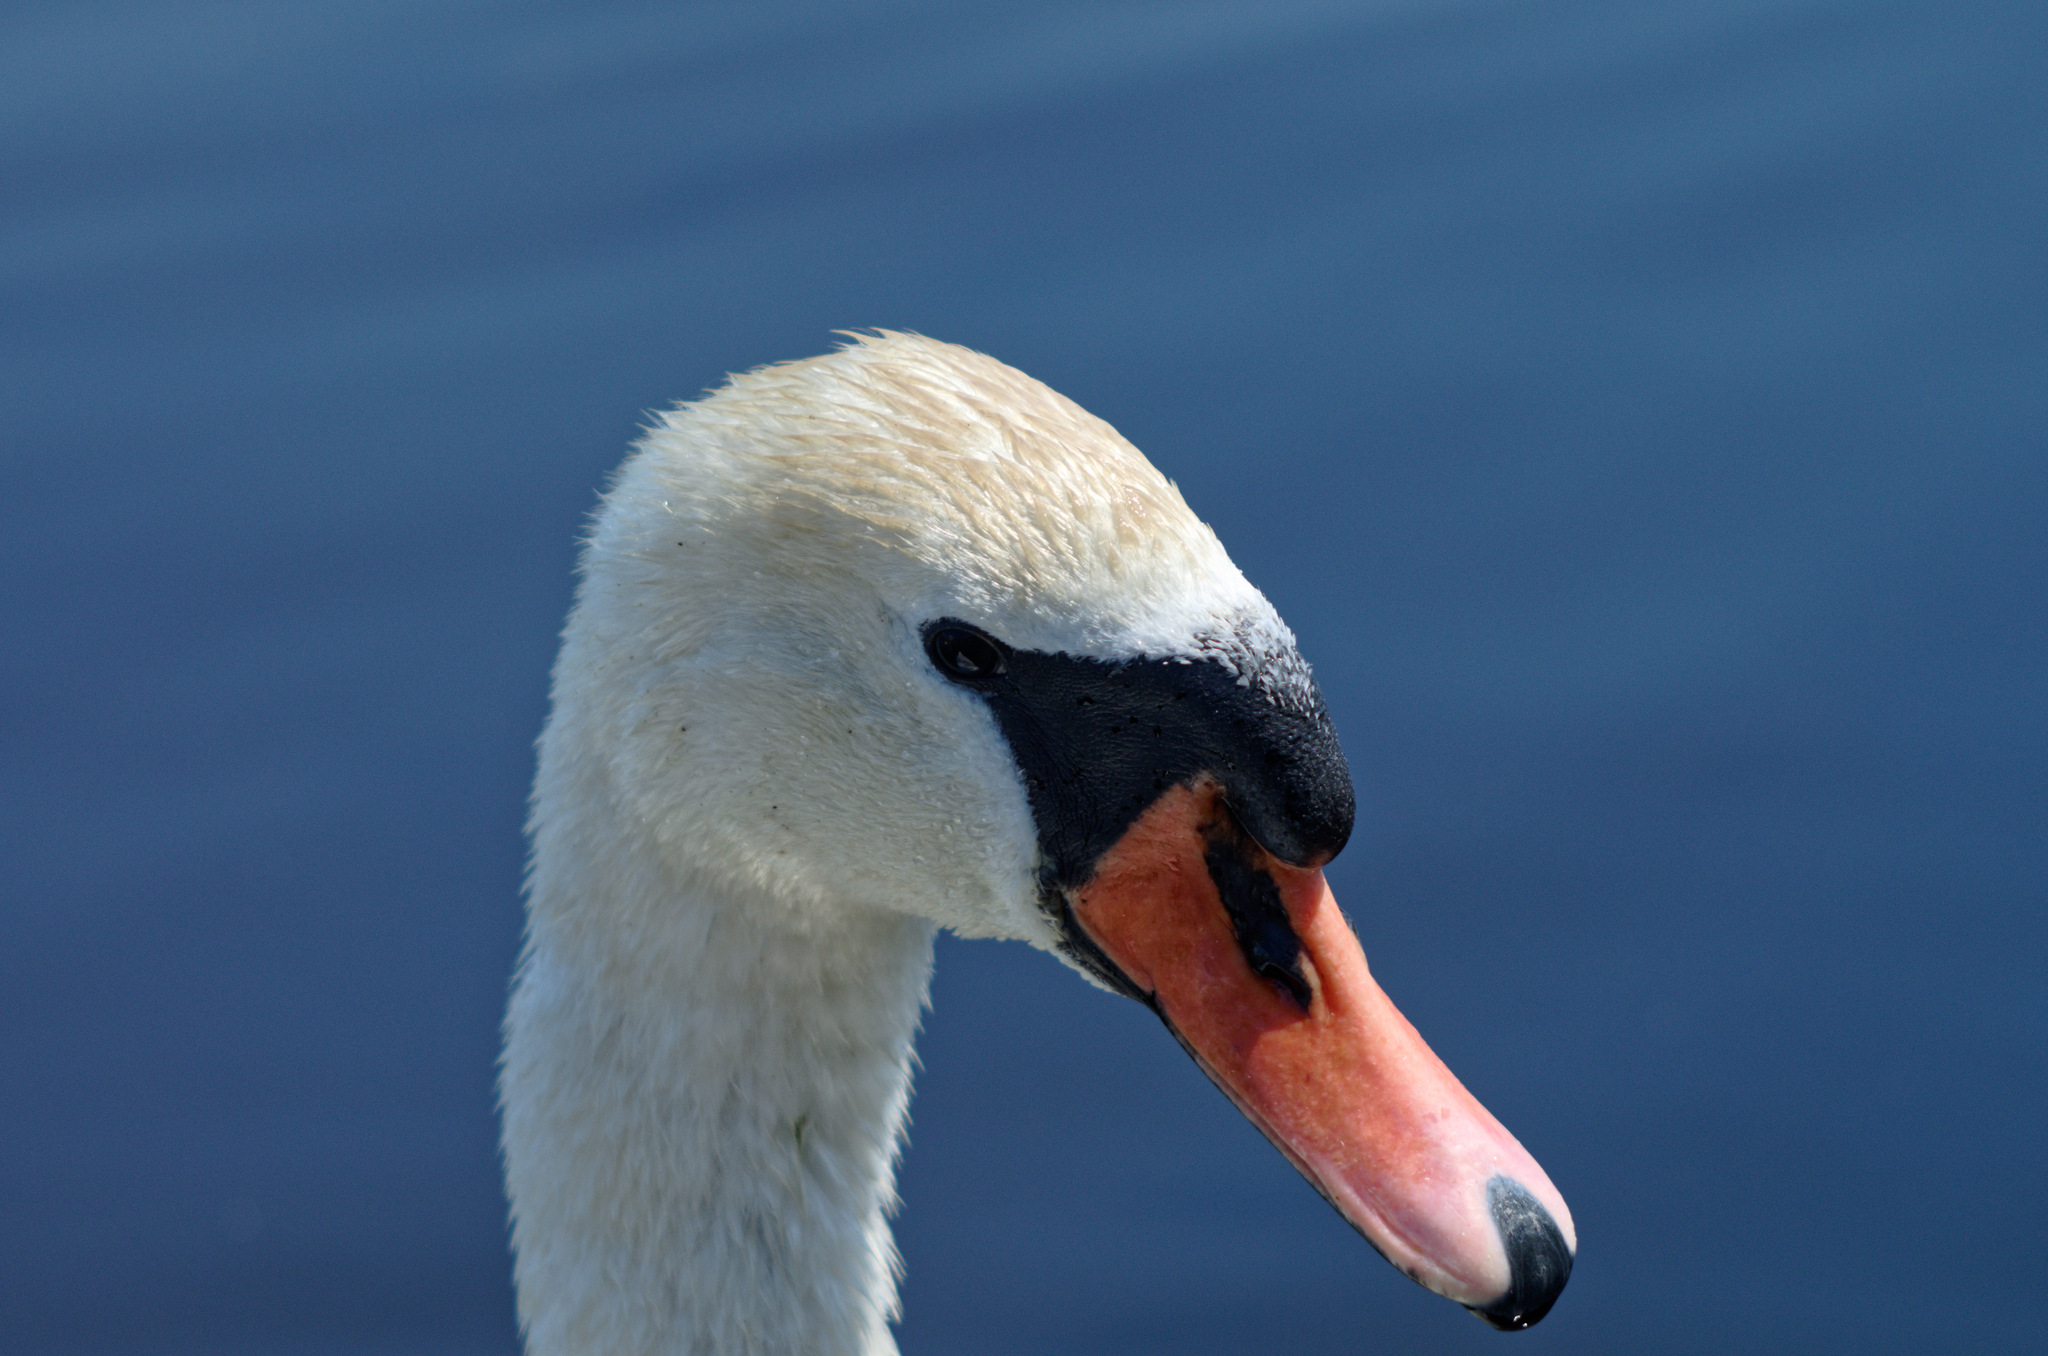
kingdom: Animalia
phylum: Chordata
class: Aves
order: Anseriformes
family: Anatidae
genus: Cygnus
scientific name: Cygnus olor
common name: Mute swan
